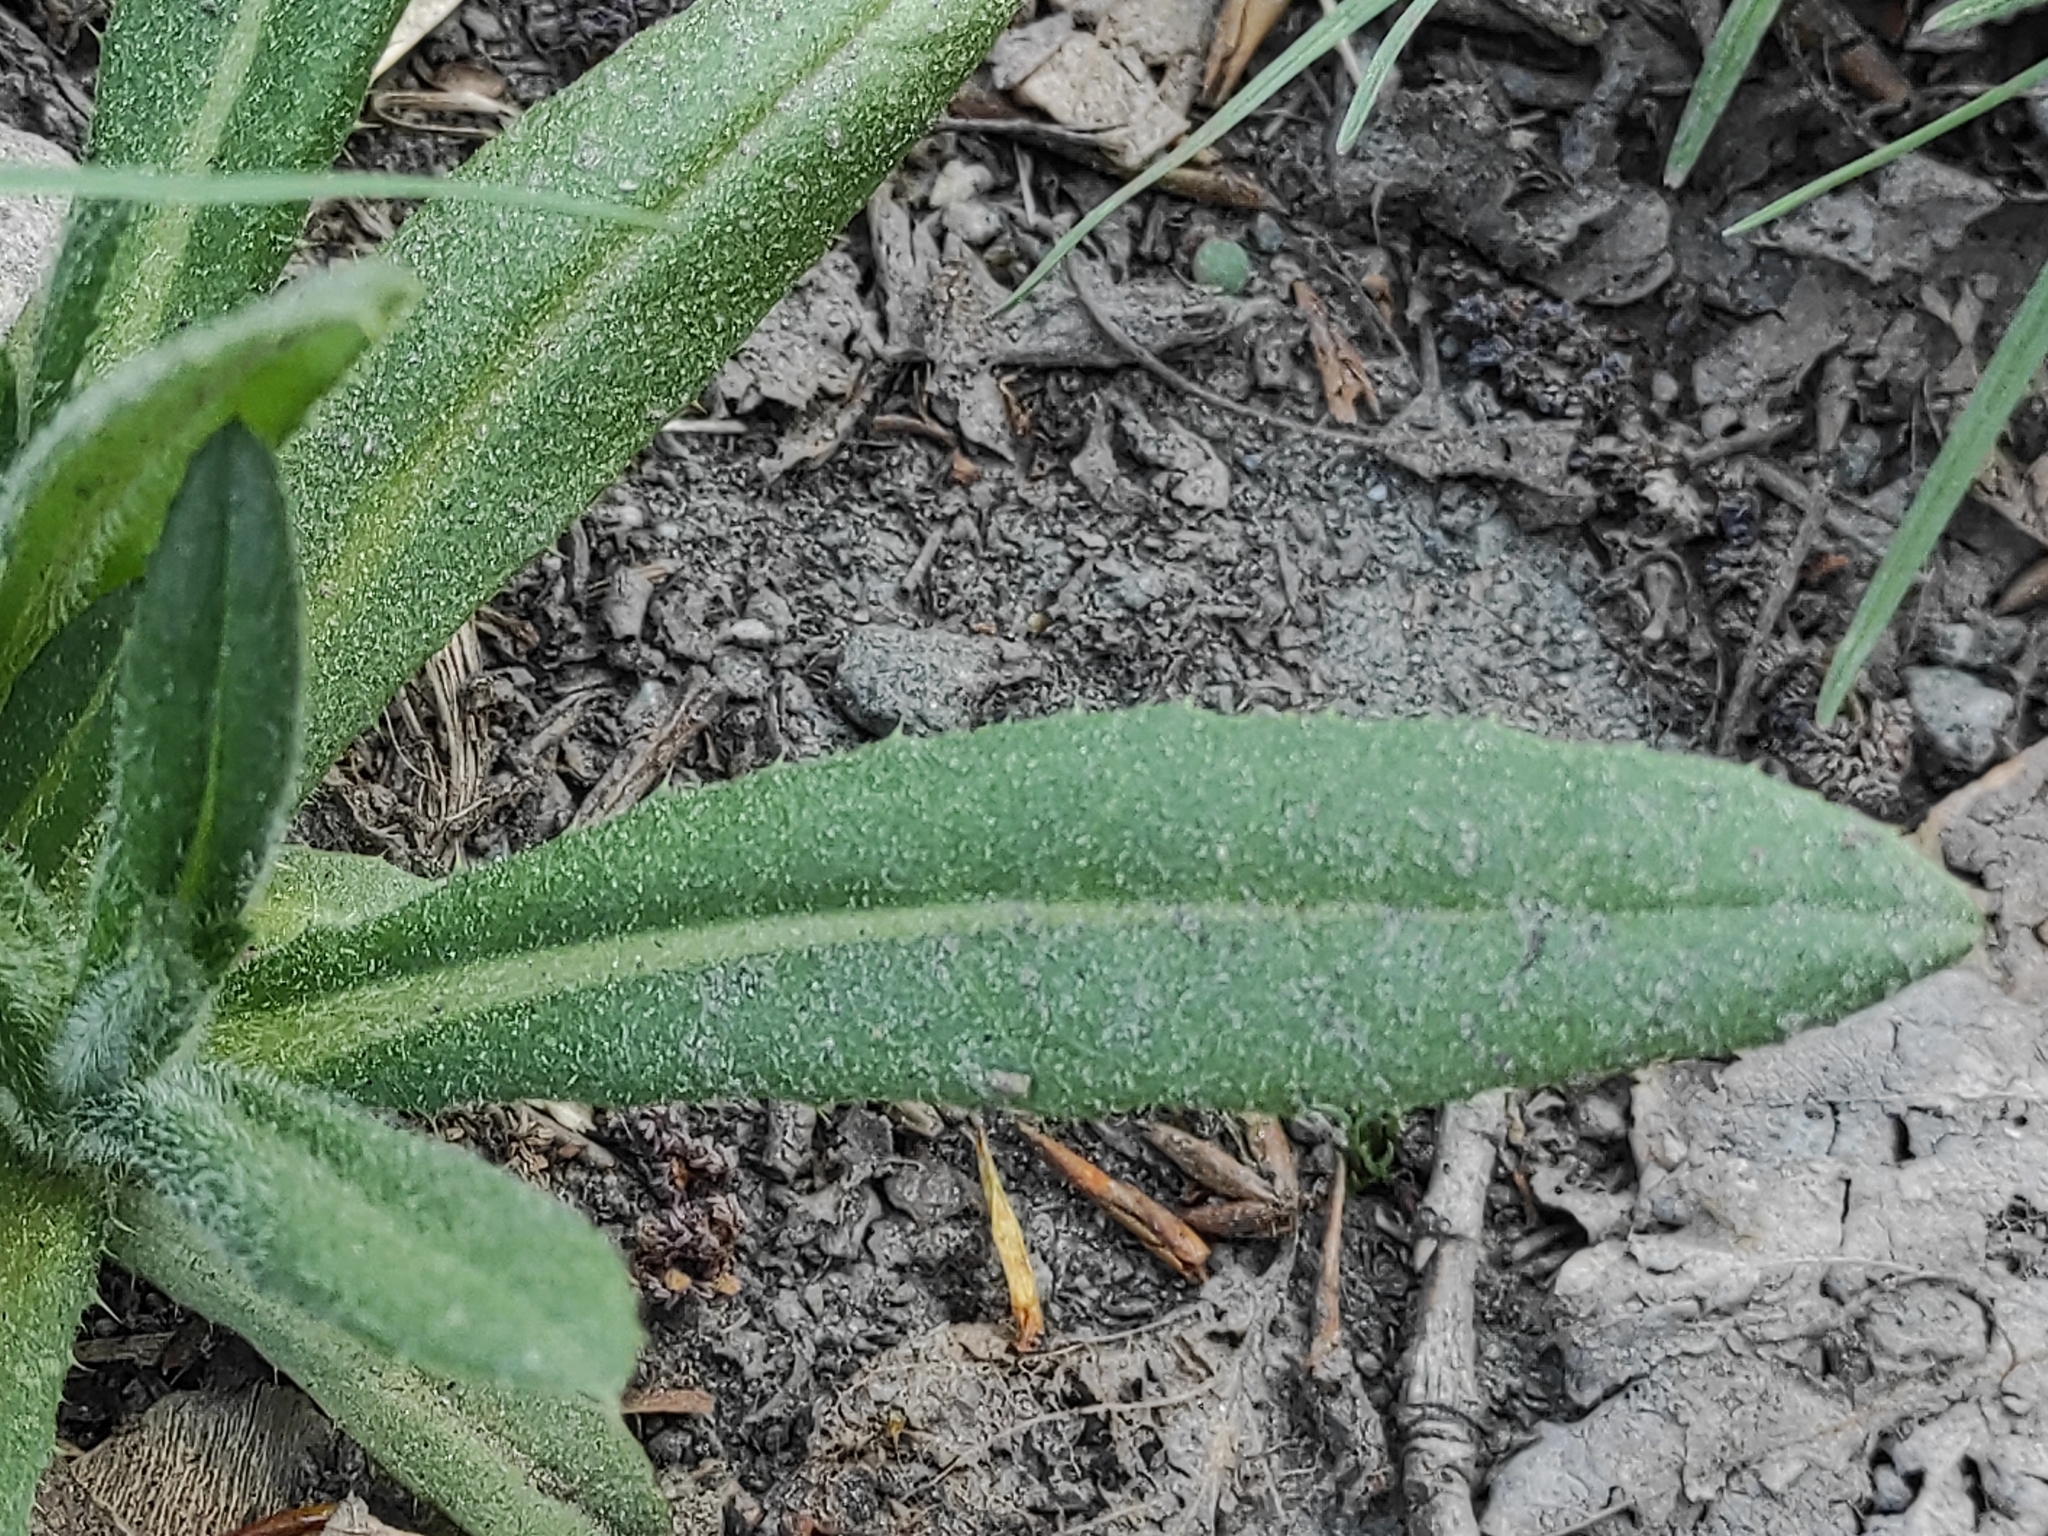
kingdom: Plantae
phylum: Tracheophyta
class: Magnoliopsida
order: Boraginales
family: Boraginaceae
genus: Echium
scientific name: Echium vulgare
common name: Common viper's bugloss
